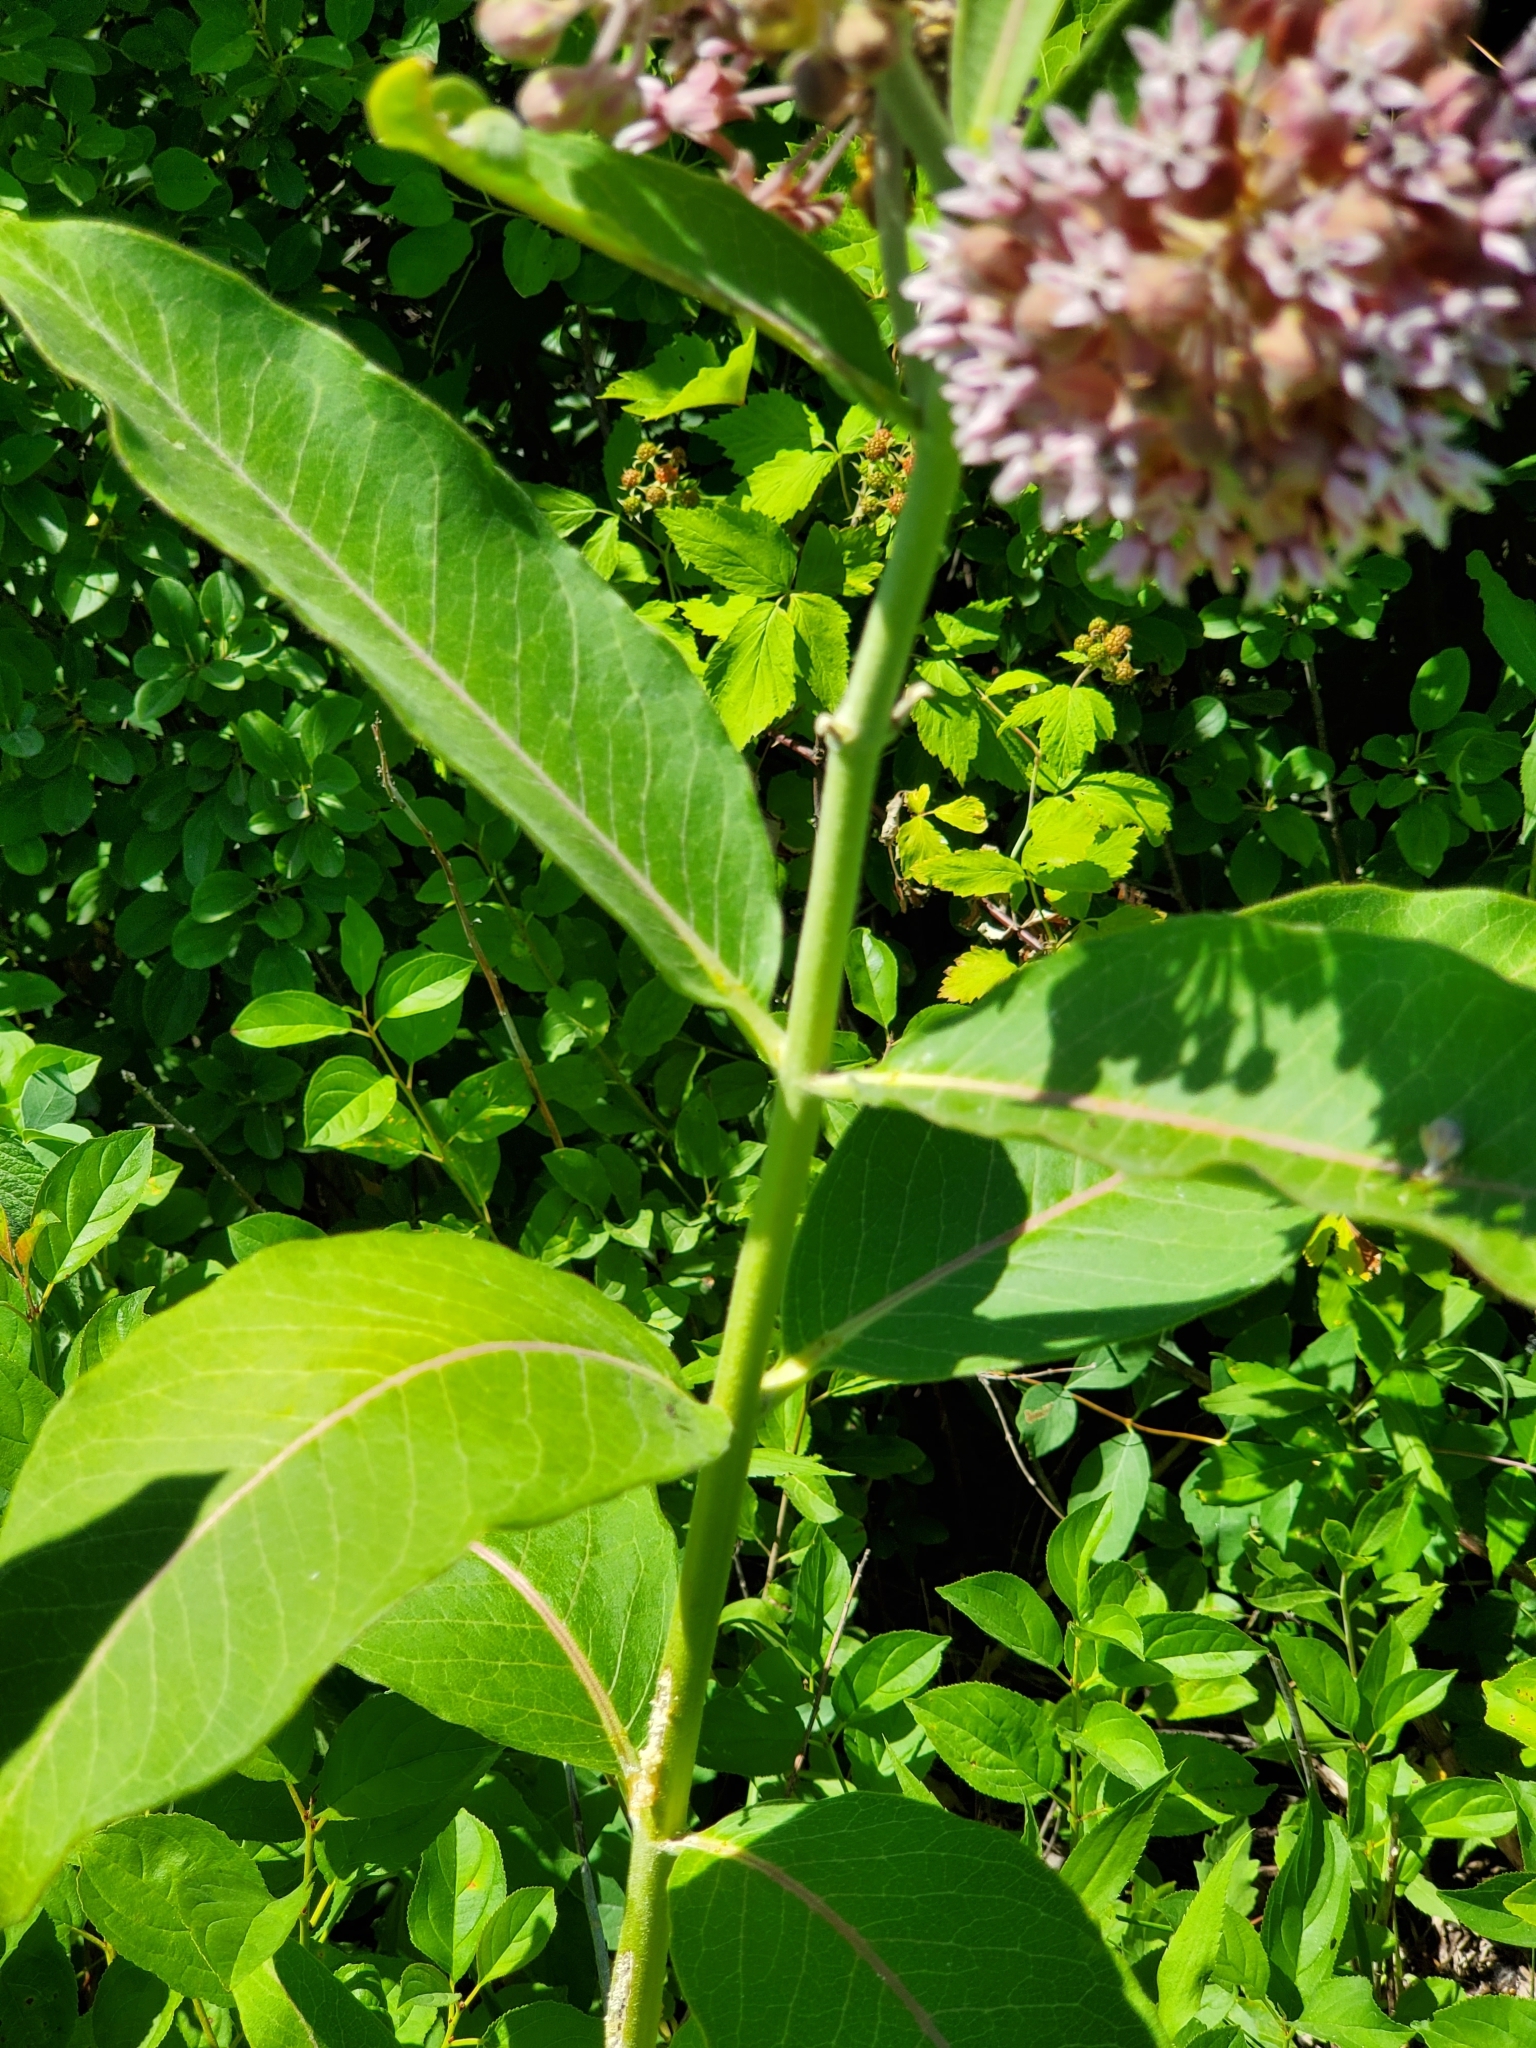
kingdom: Plantae
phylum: Tracheophyta
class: Magnoliopsida
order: Gentianales
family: Apocynaceae
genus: Asclepias
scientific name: Asclepias syriaca
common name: Common milkweed
